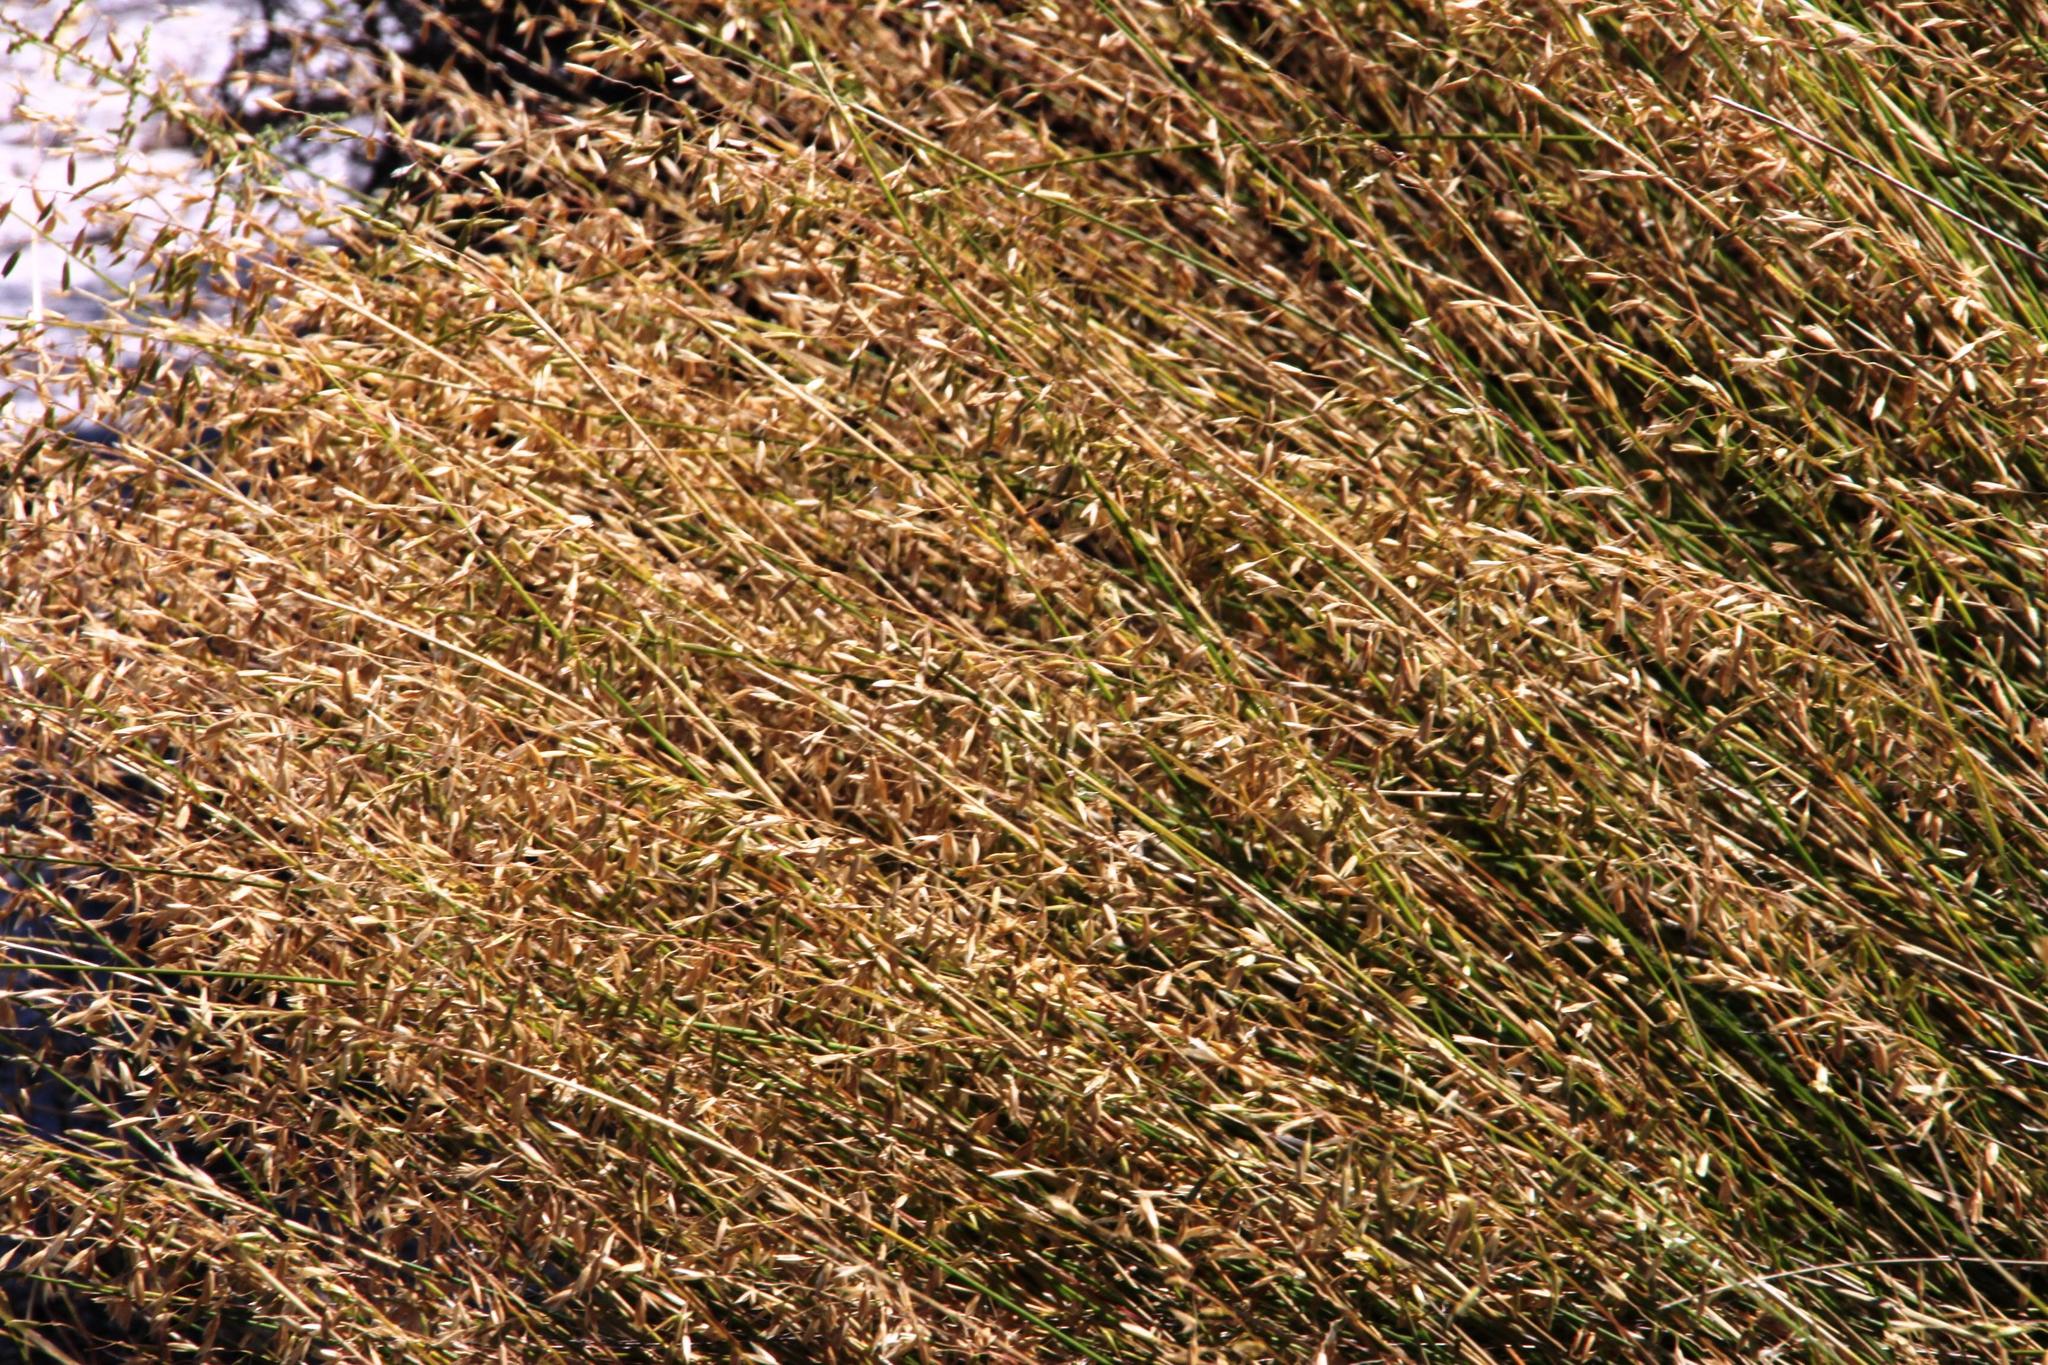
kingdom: Plantae
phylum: Tracheophyta
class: Liliopsida
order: Poales
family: Poaceae
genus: Ehrharta
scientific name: Ehrharta ramosa
